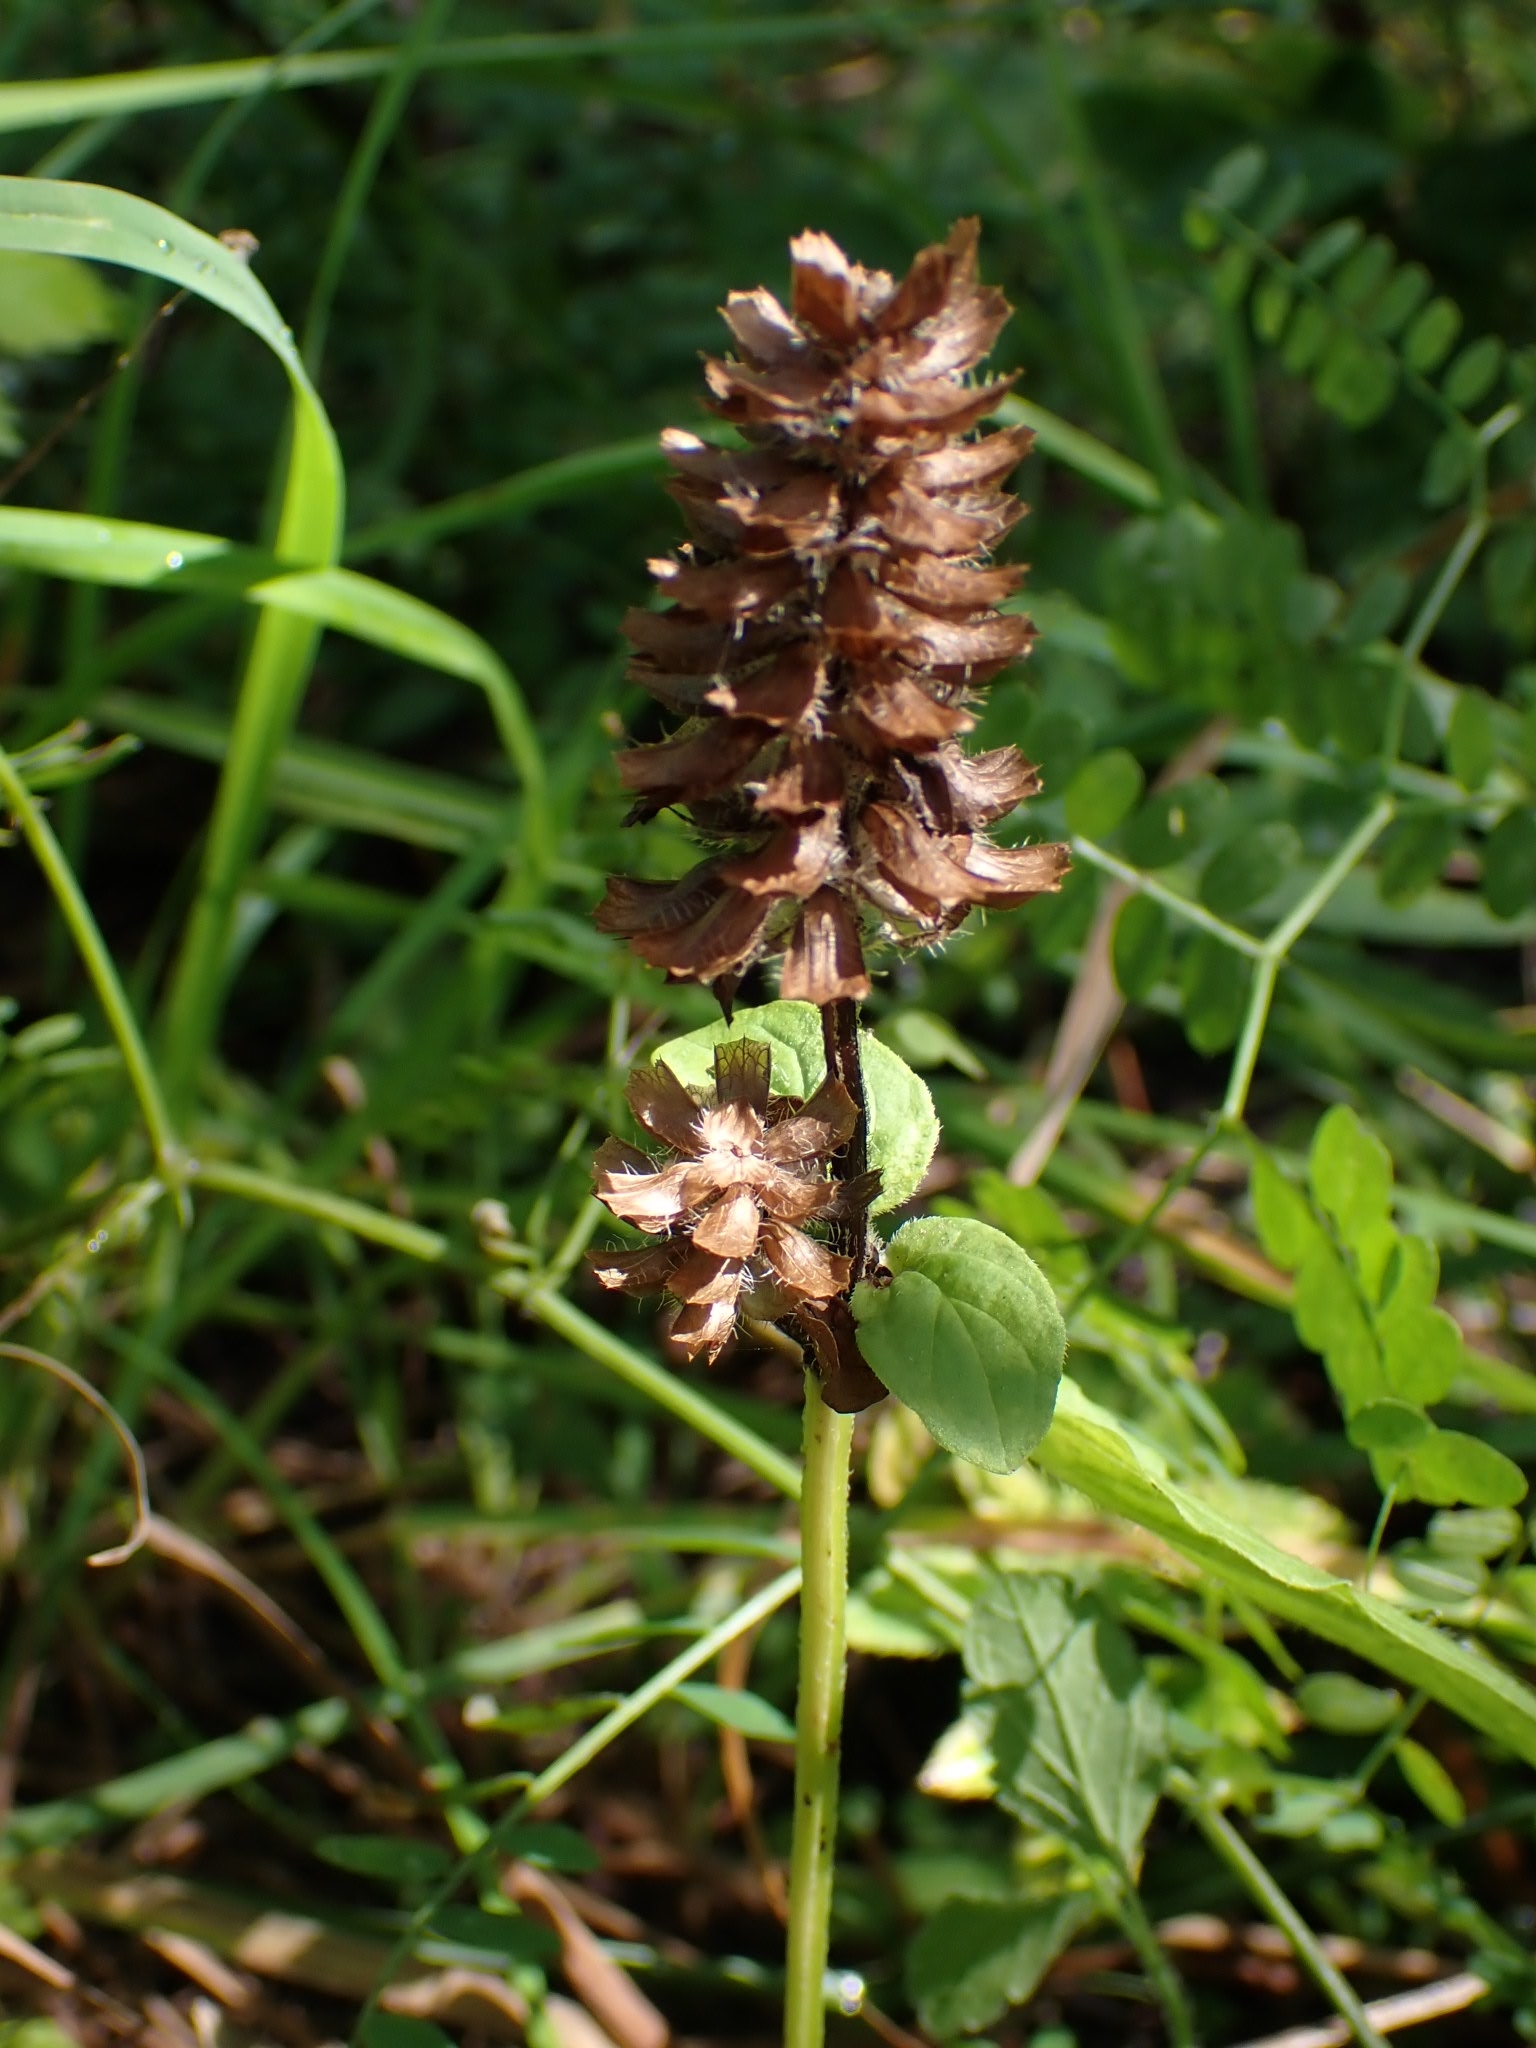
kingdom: Plantae
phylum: Tracheophyta
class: Magnoliopsida
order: Lamiales
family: Lamiaceae
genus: Prunella
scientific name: Prunella vulgaris
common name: Heal-all
